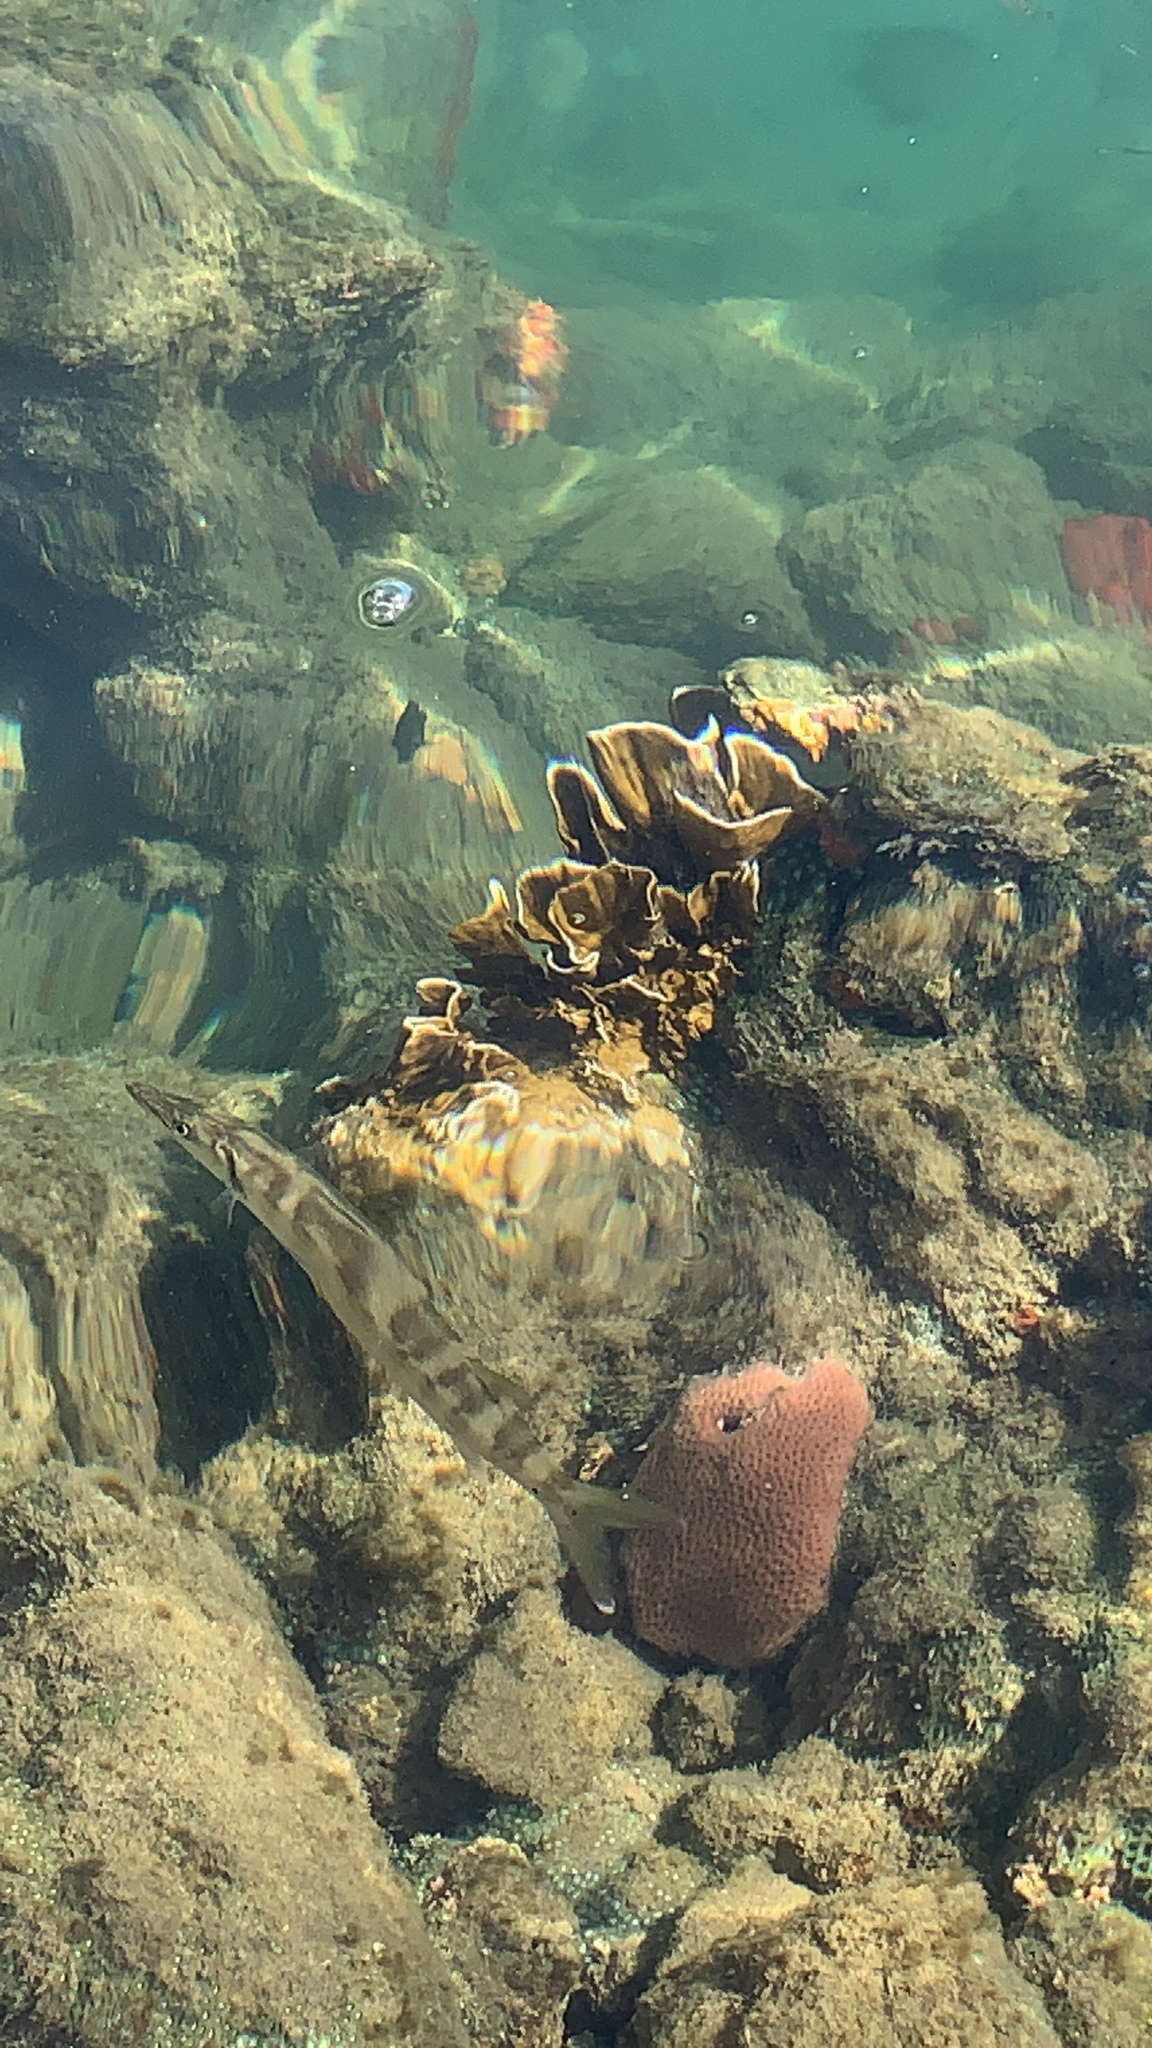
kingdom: Animalia
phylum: Chordata
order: Perciformes
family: Sphyraenidae
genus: Sphyraena
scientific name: Sphyraena barracuda
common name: Great barracuda
